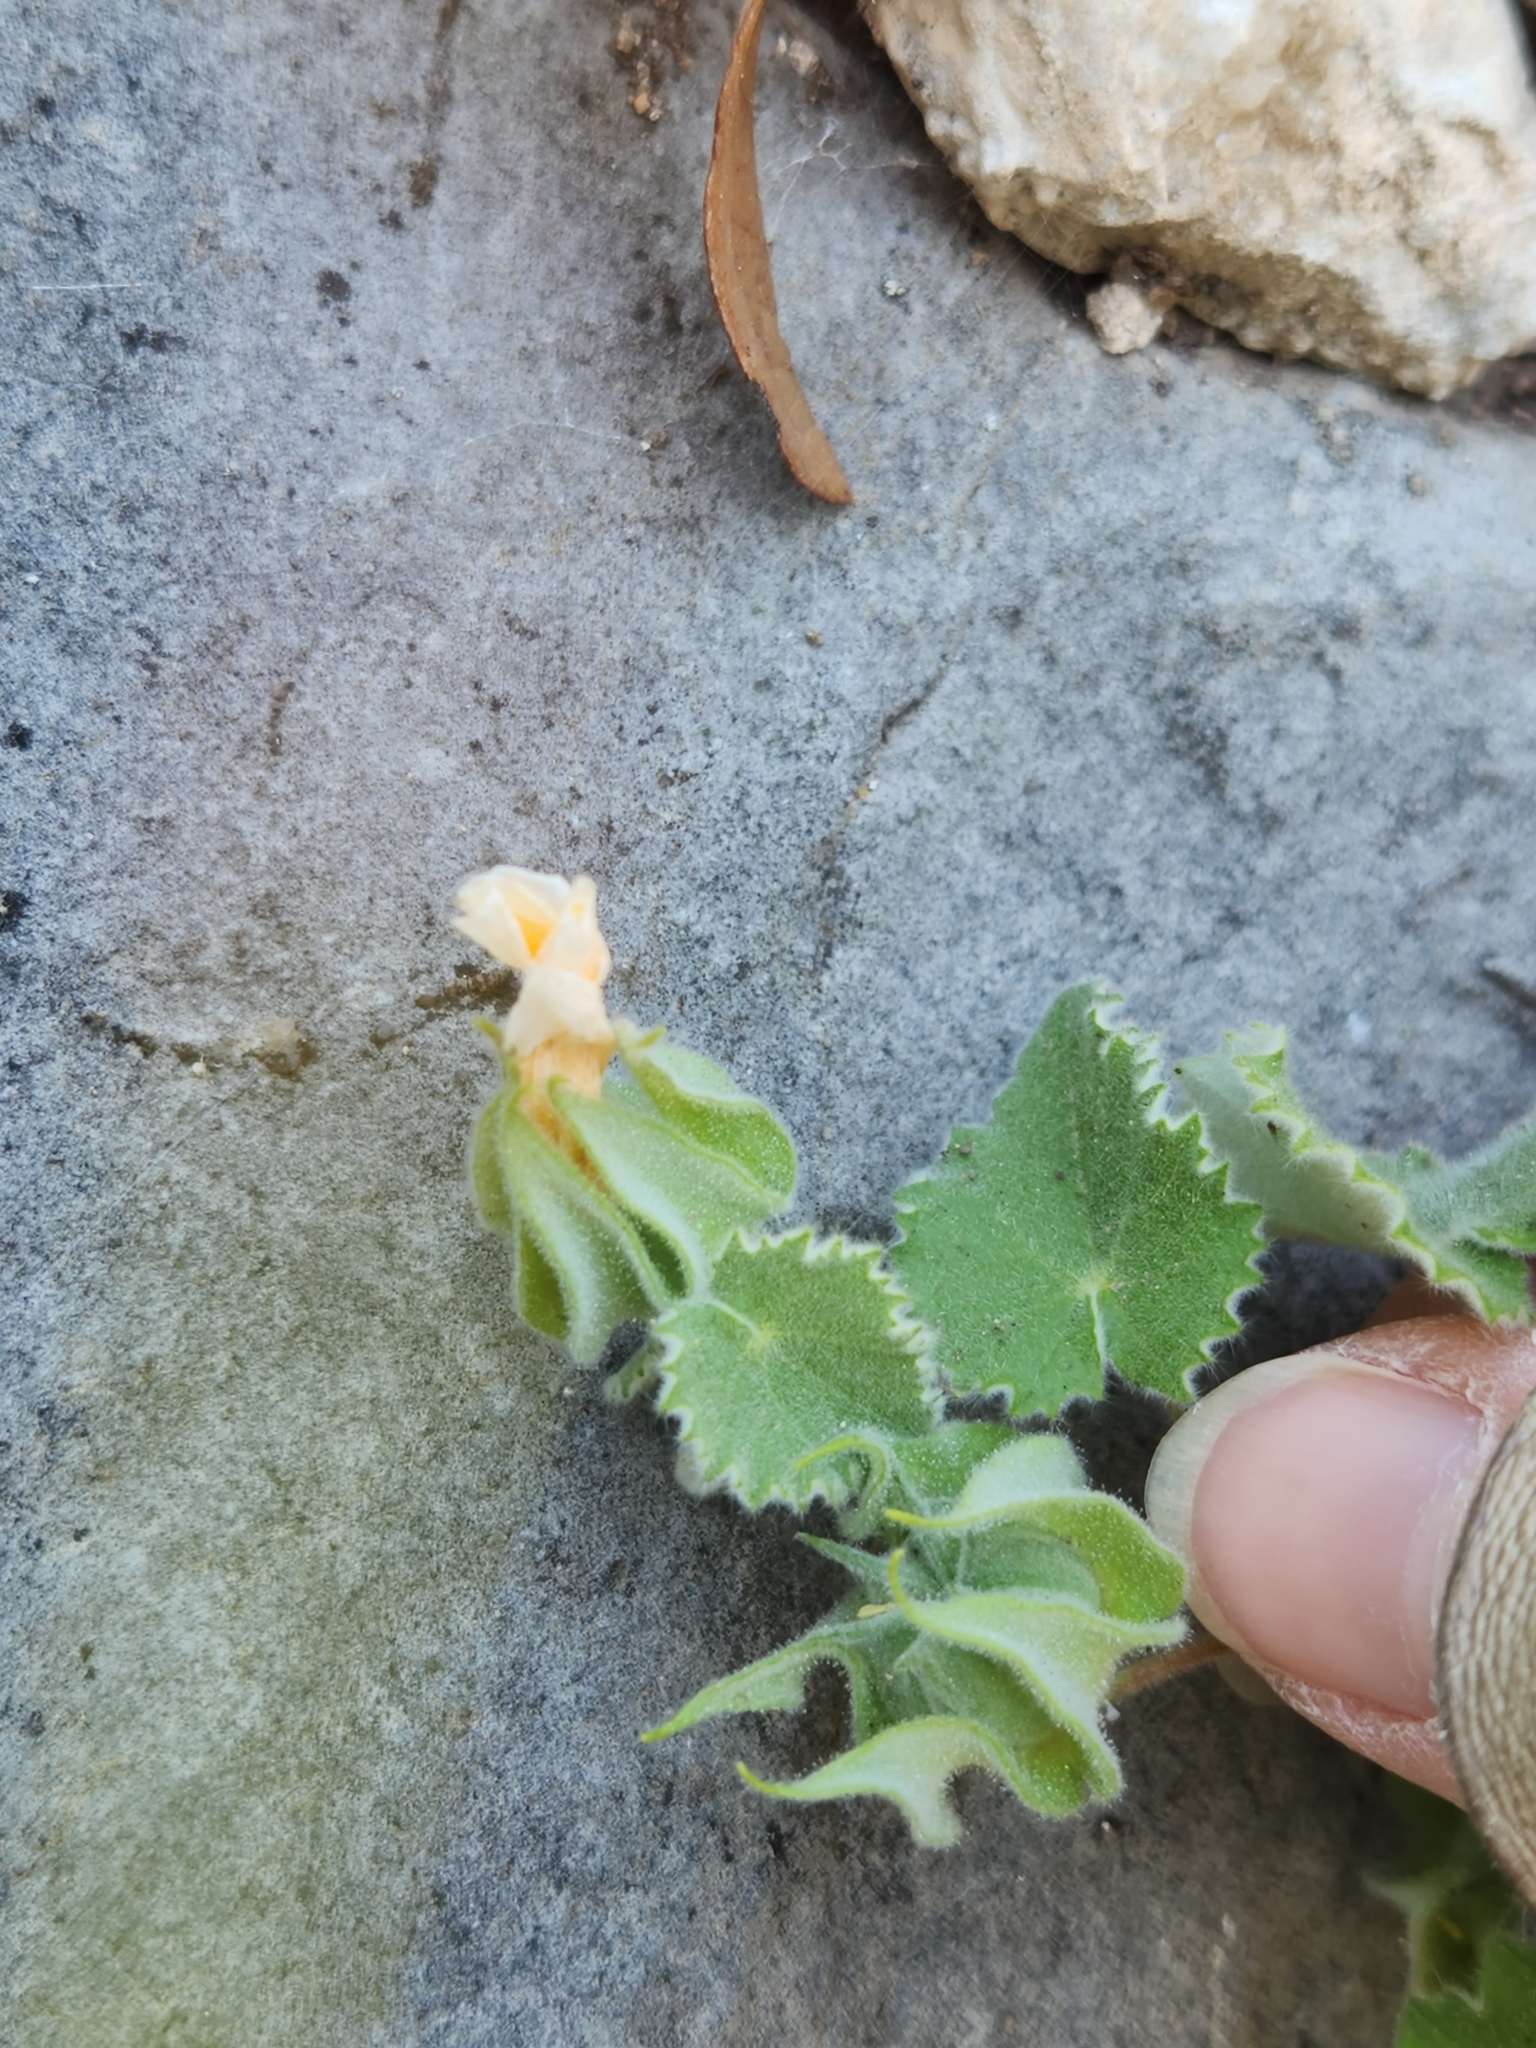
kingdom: Plantae
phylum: Tracheophyta
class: Magnoliopsida
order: Malvales
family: Malvaceae
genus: Abutilon
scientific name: Abutilon wrightii
